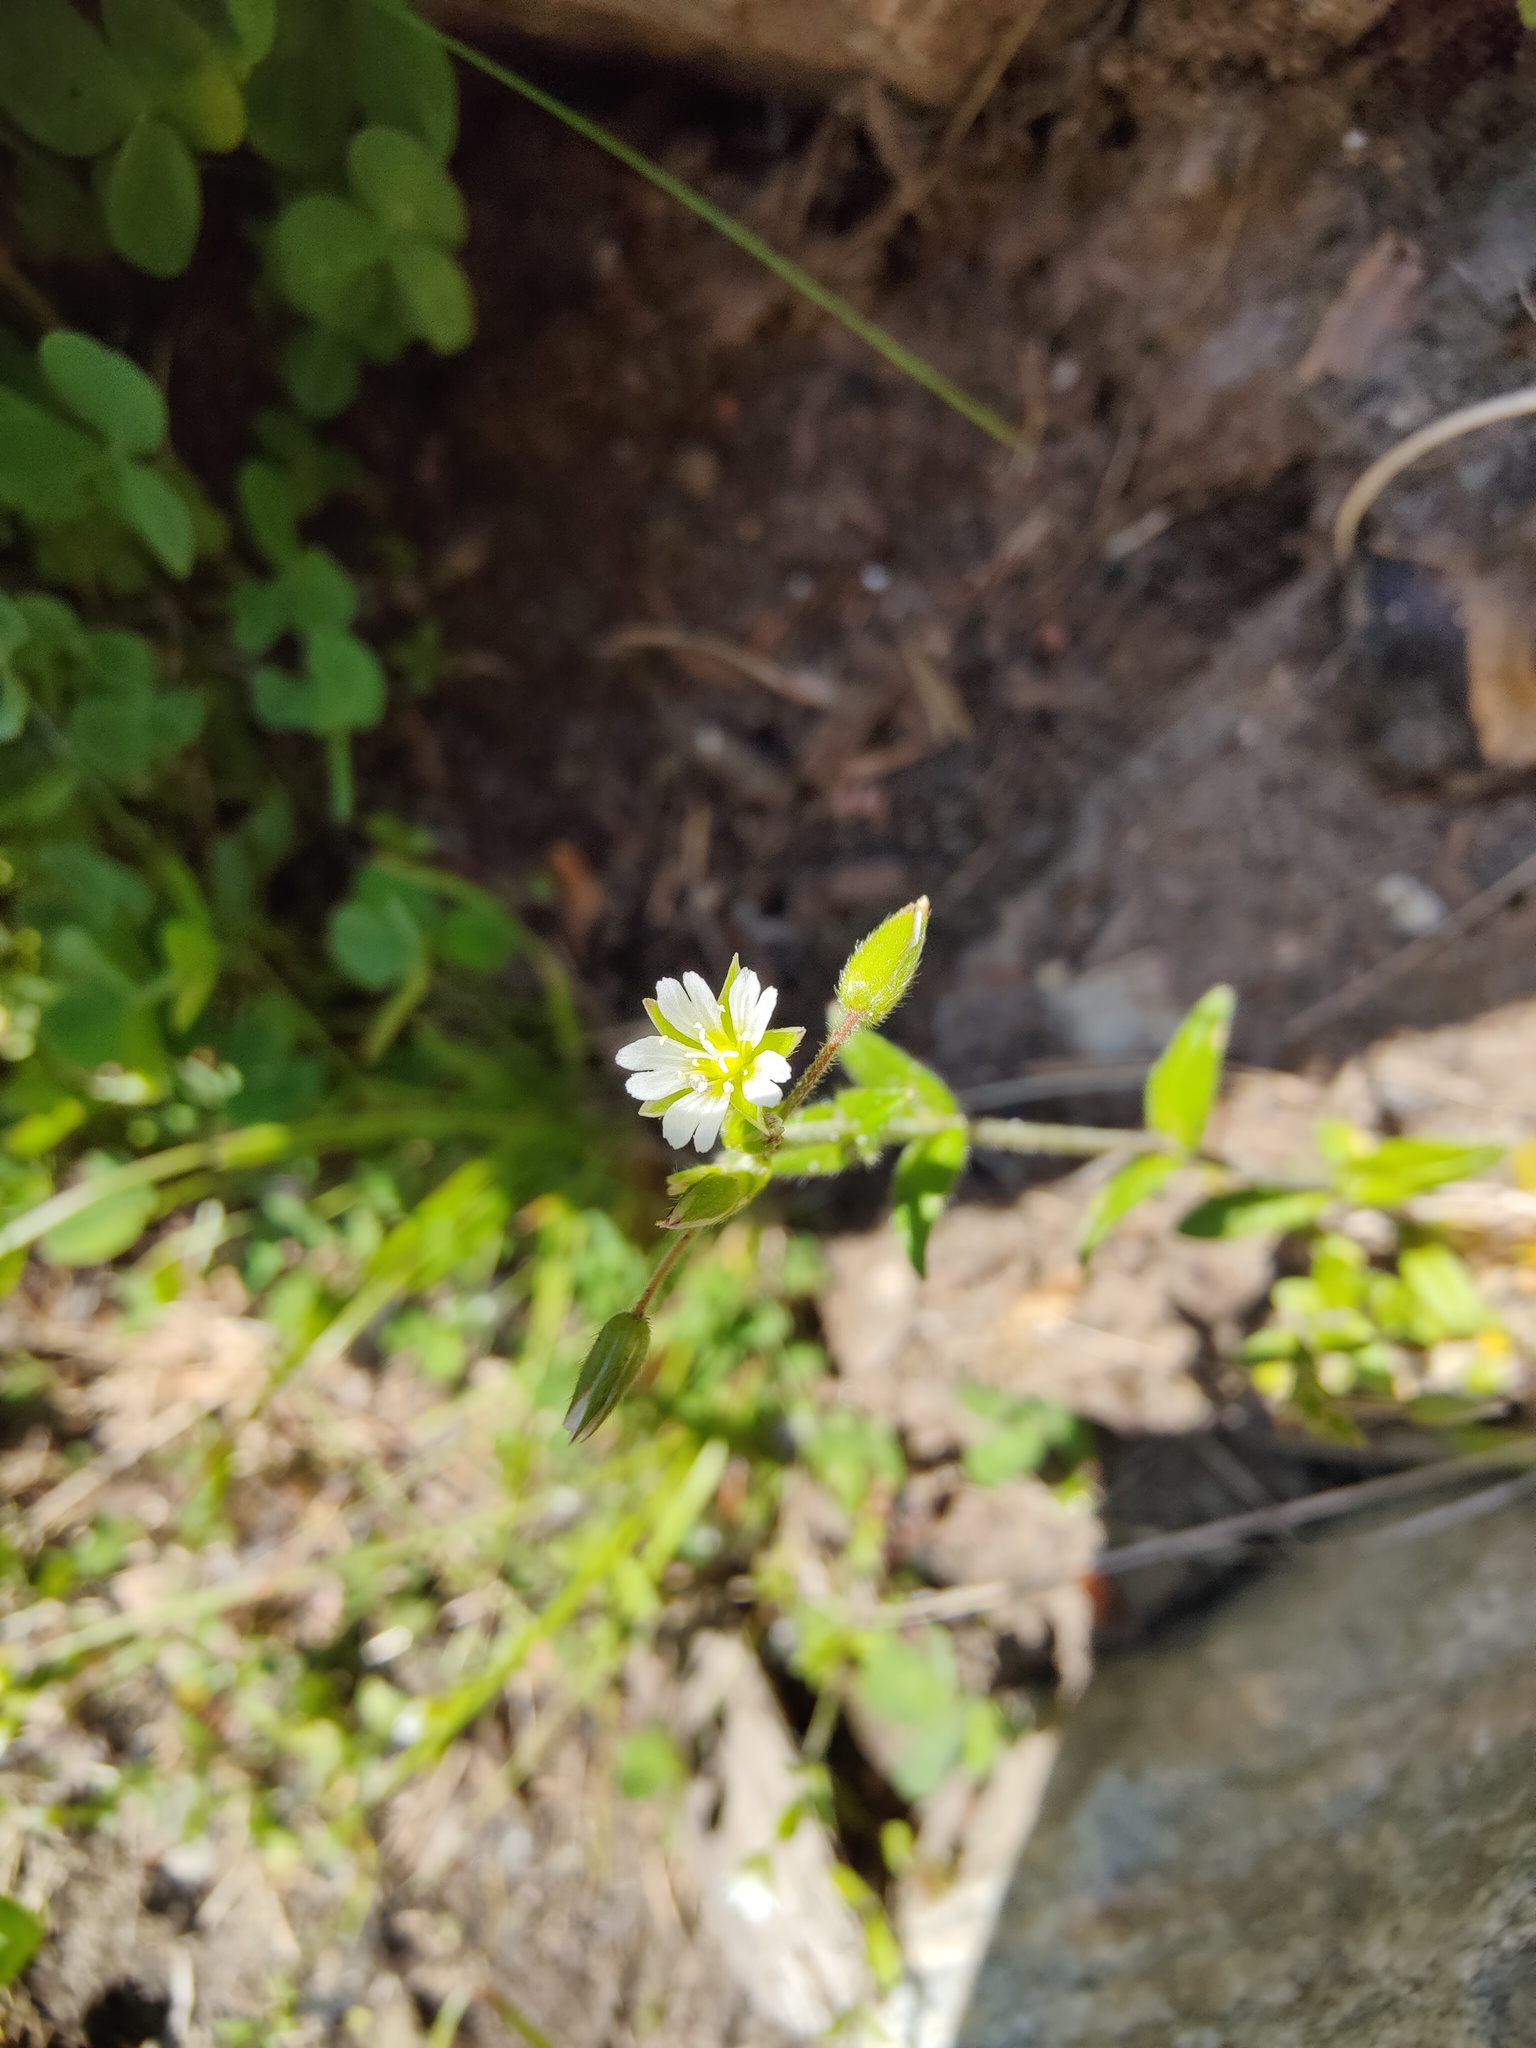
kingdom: Plantae
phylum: Tracheophyta
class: Magnoliopsida
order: Caryophyllales
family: Caryophyllaceae
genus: Cerastium
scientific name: Cerastium holosteoides
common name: Big chickweed
